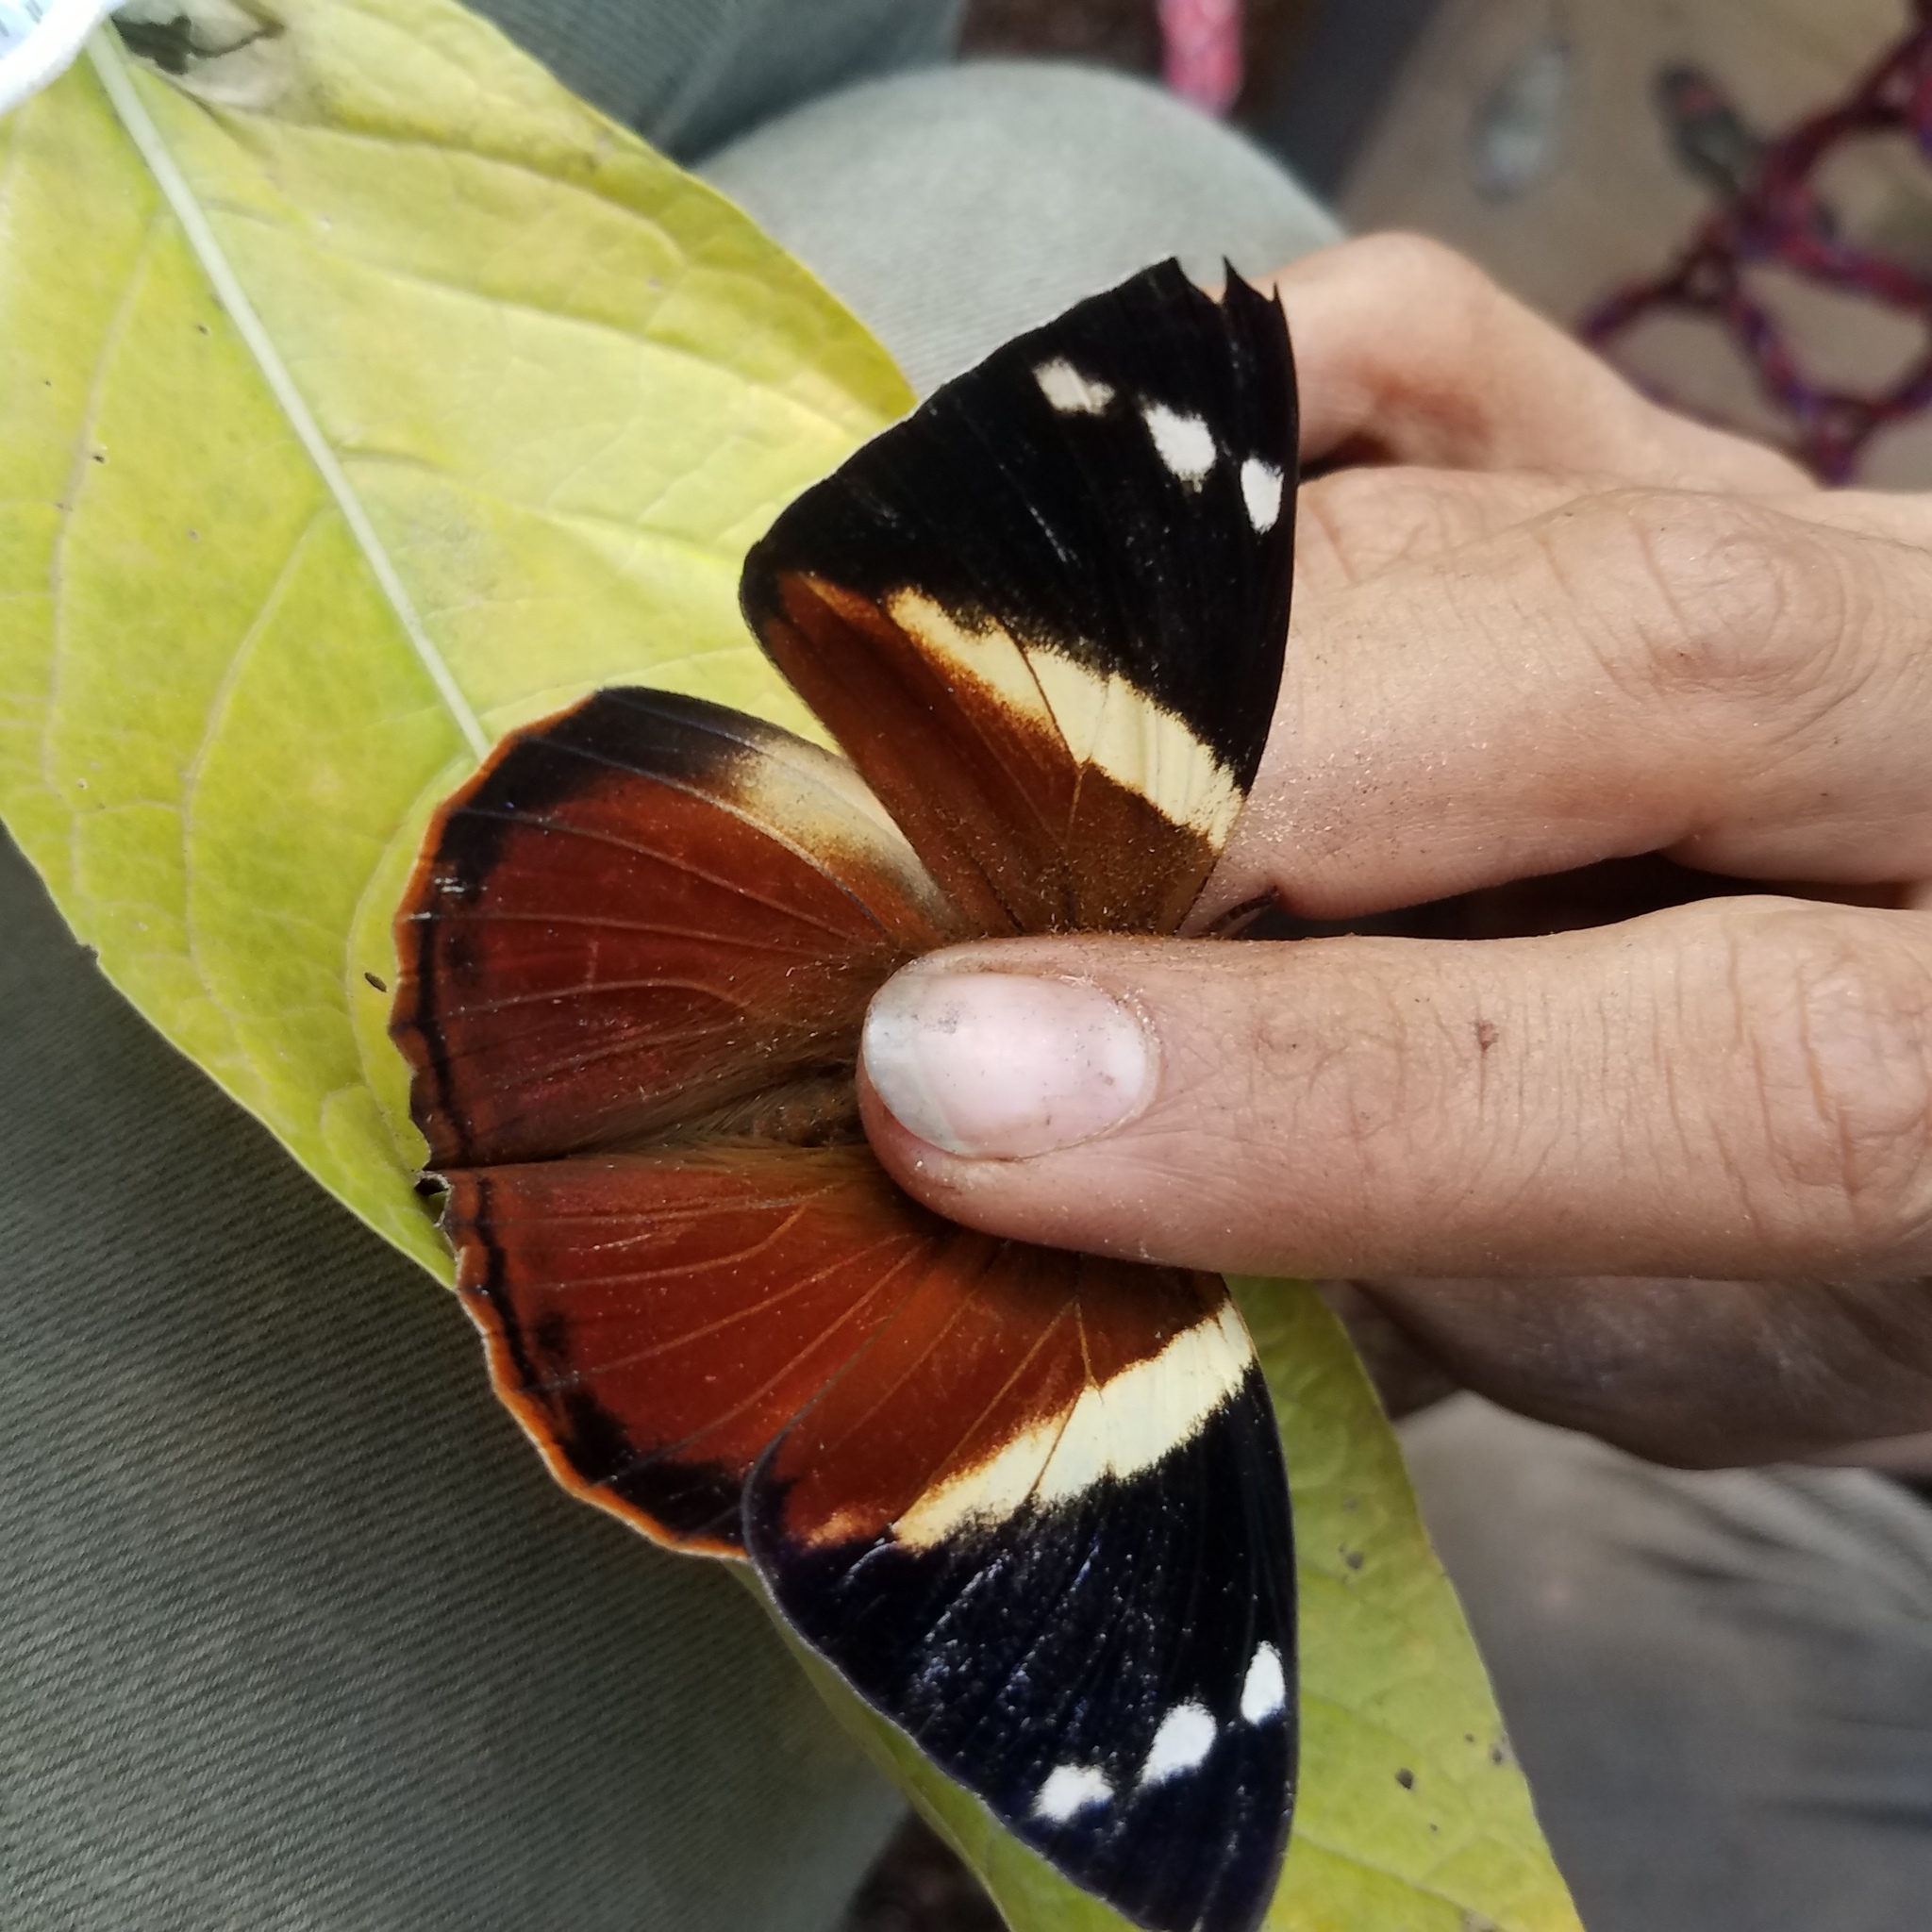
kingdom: Animalia
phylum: Arthropoda
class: Insecta
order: Lepidoptera
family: Nymphalidae
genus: Smyrna
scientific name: Smyrna blomfildia
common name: Blomfild's beauty
